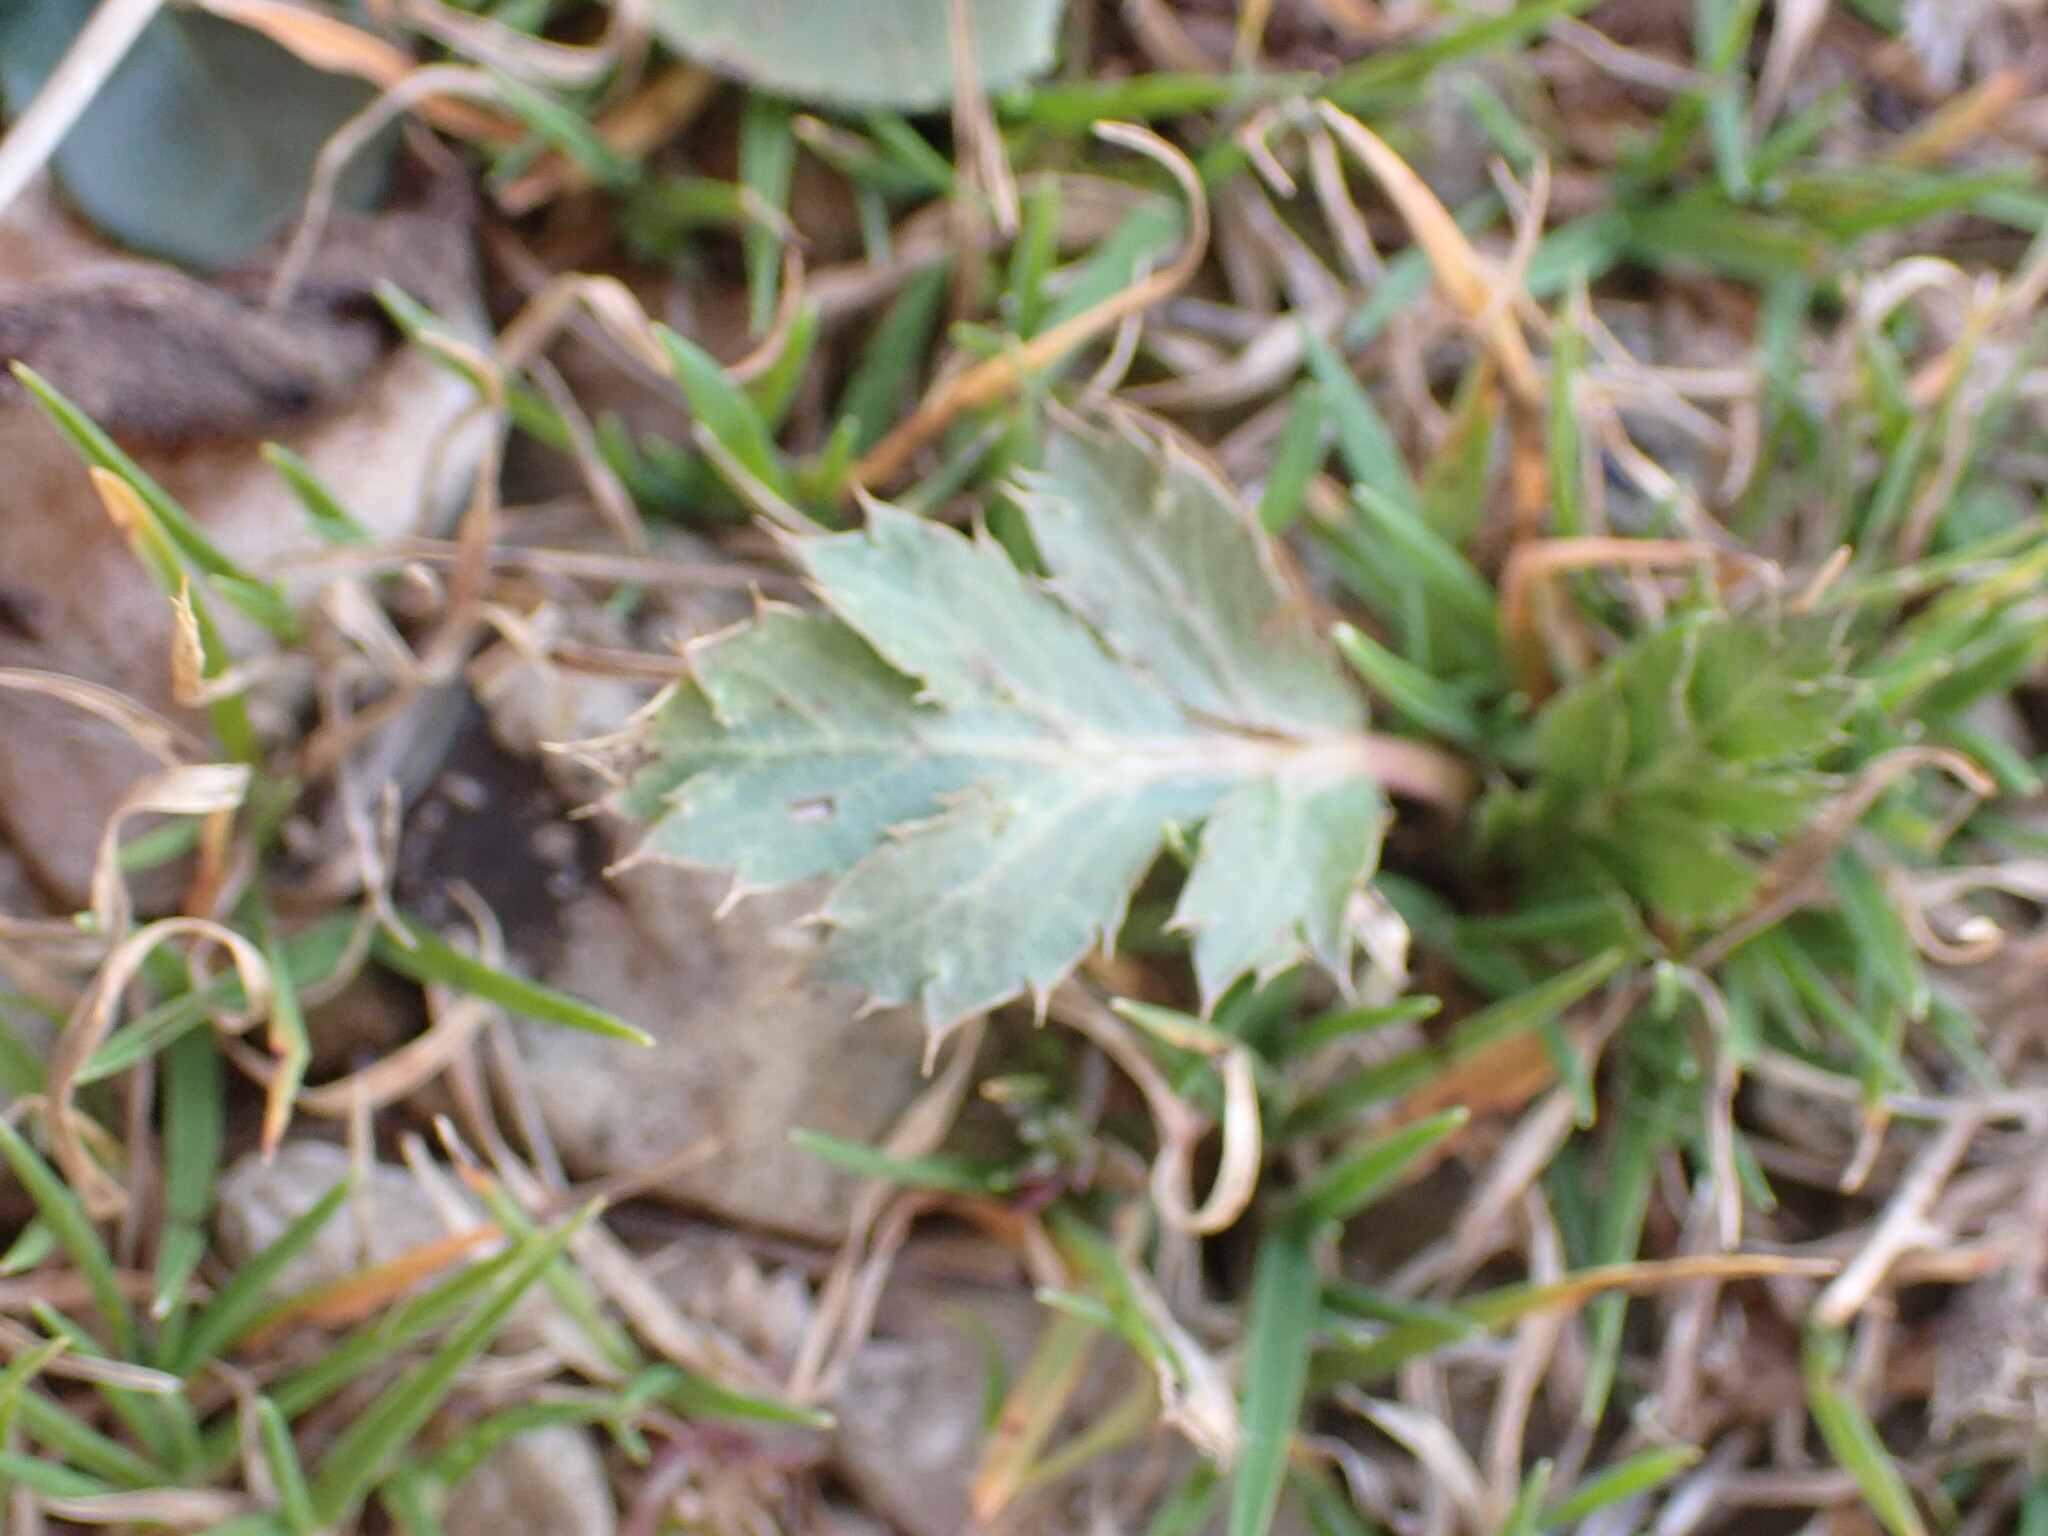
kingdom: Plantae
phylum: Tracheophyta
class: Magnoliopsida
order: Apiales
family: Apiaceae
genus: Eryngium
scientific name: Eryngium campestre
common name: Field eryngo
